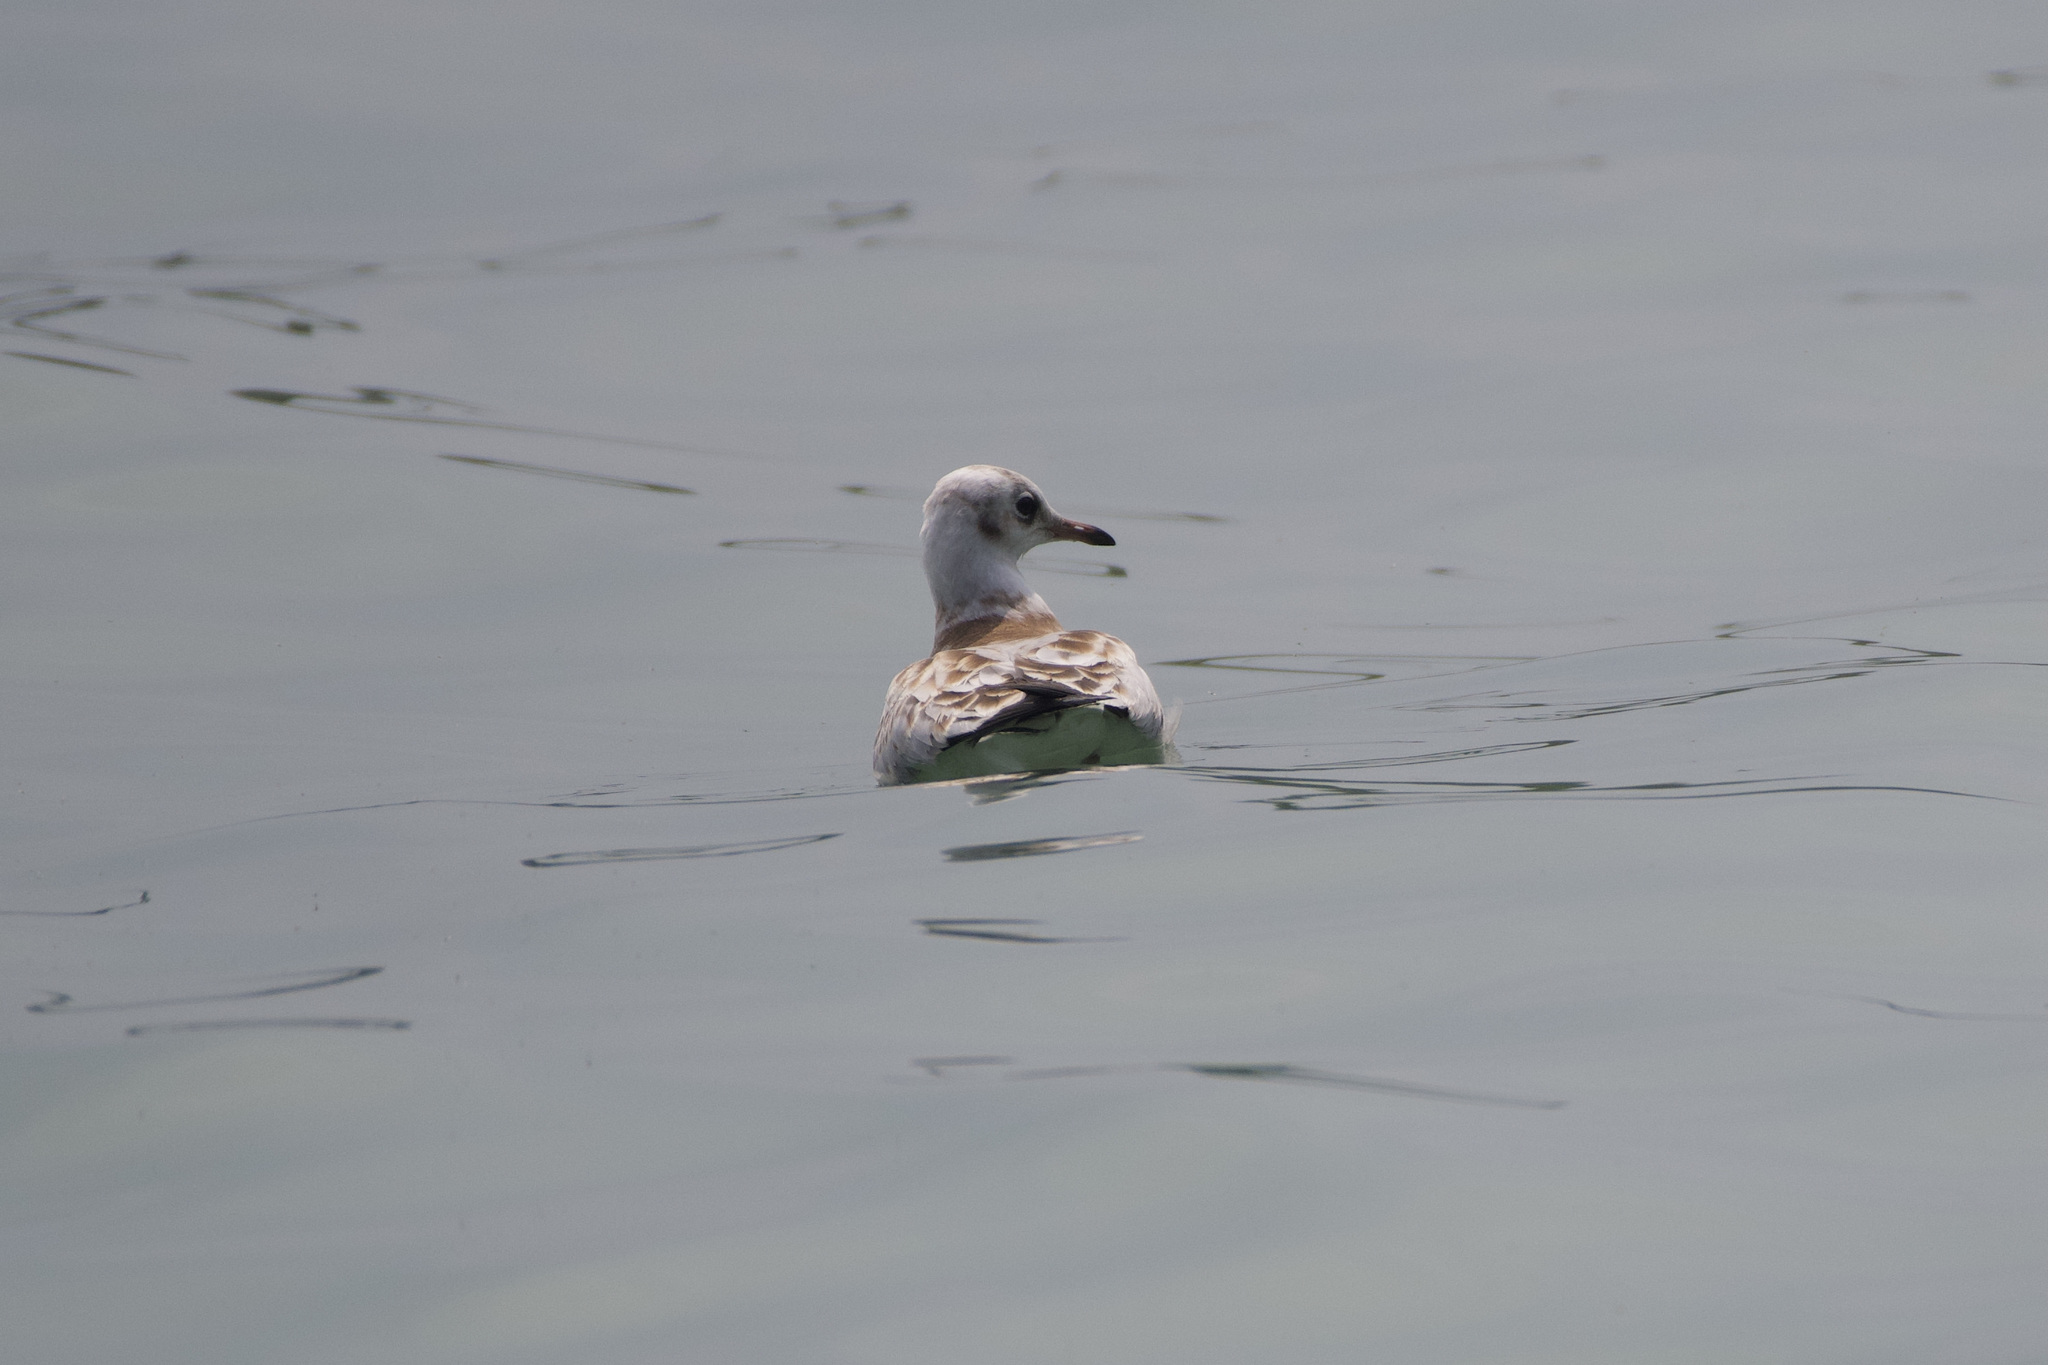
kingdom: Animalia
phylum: Chordata
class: Aves
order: Charadriiformes
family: Laridae
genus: Chroicocephalus
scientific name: Chroicocephalus ridibundus
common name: Black-headed gull
